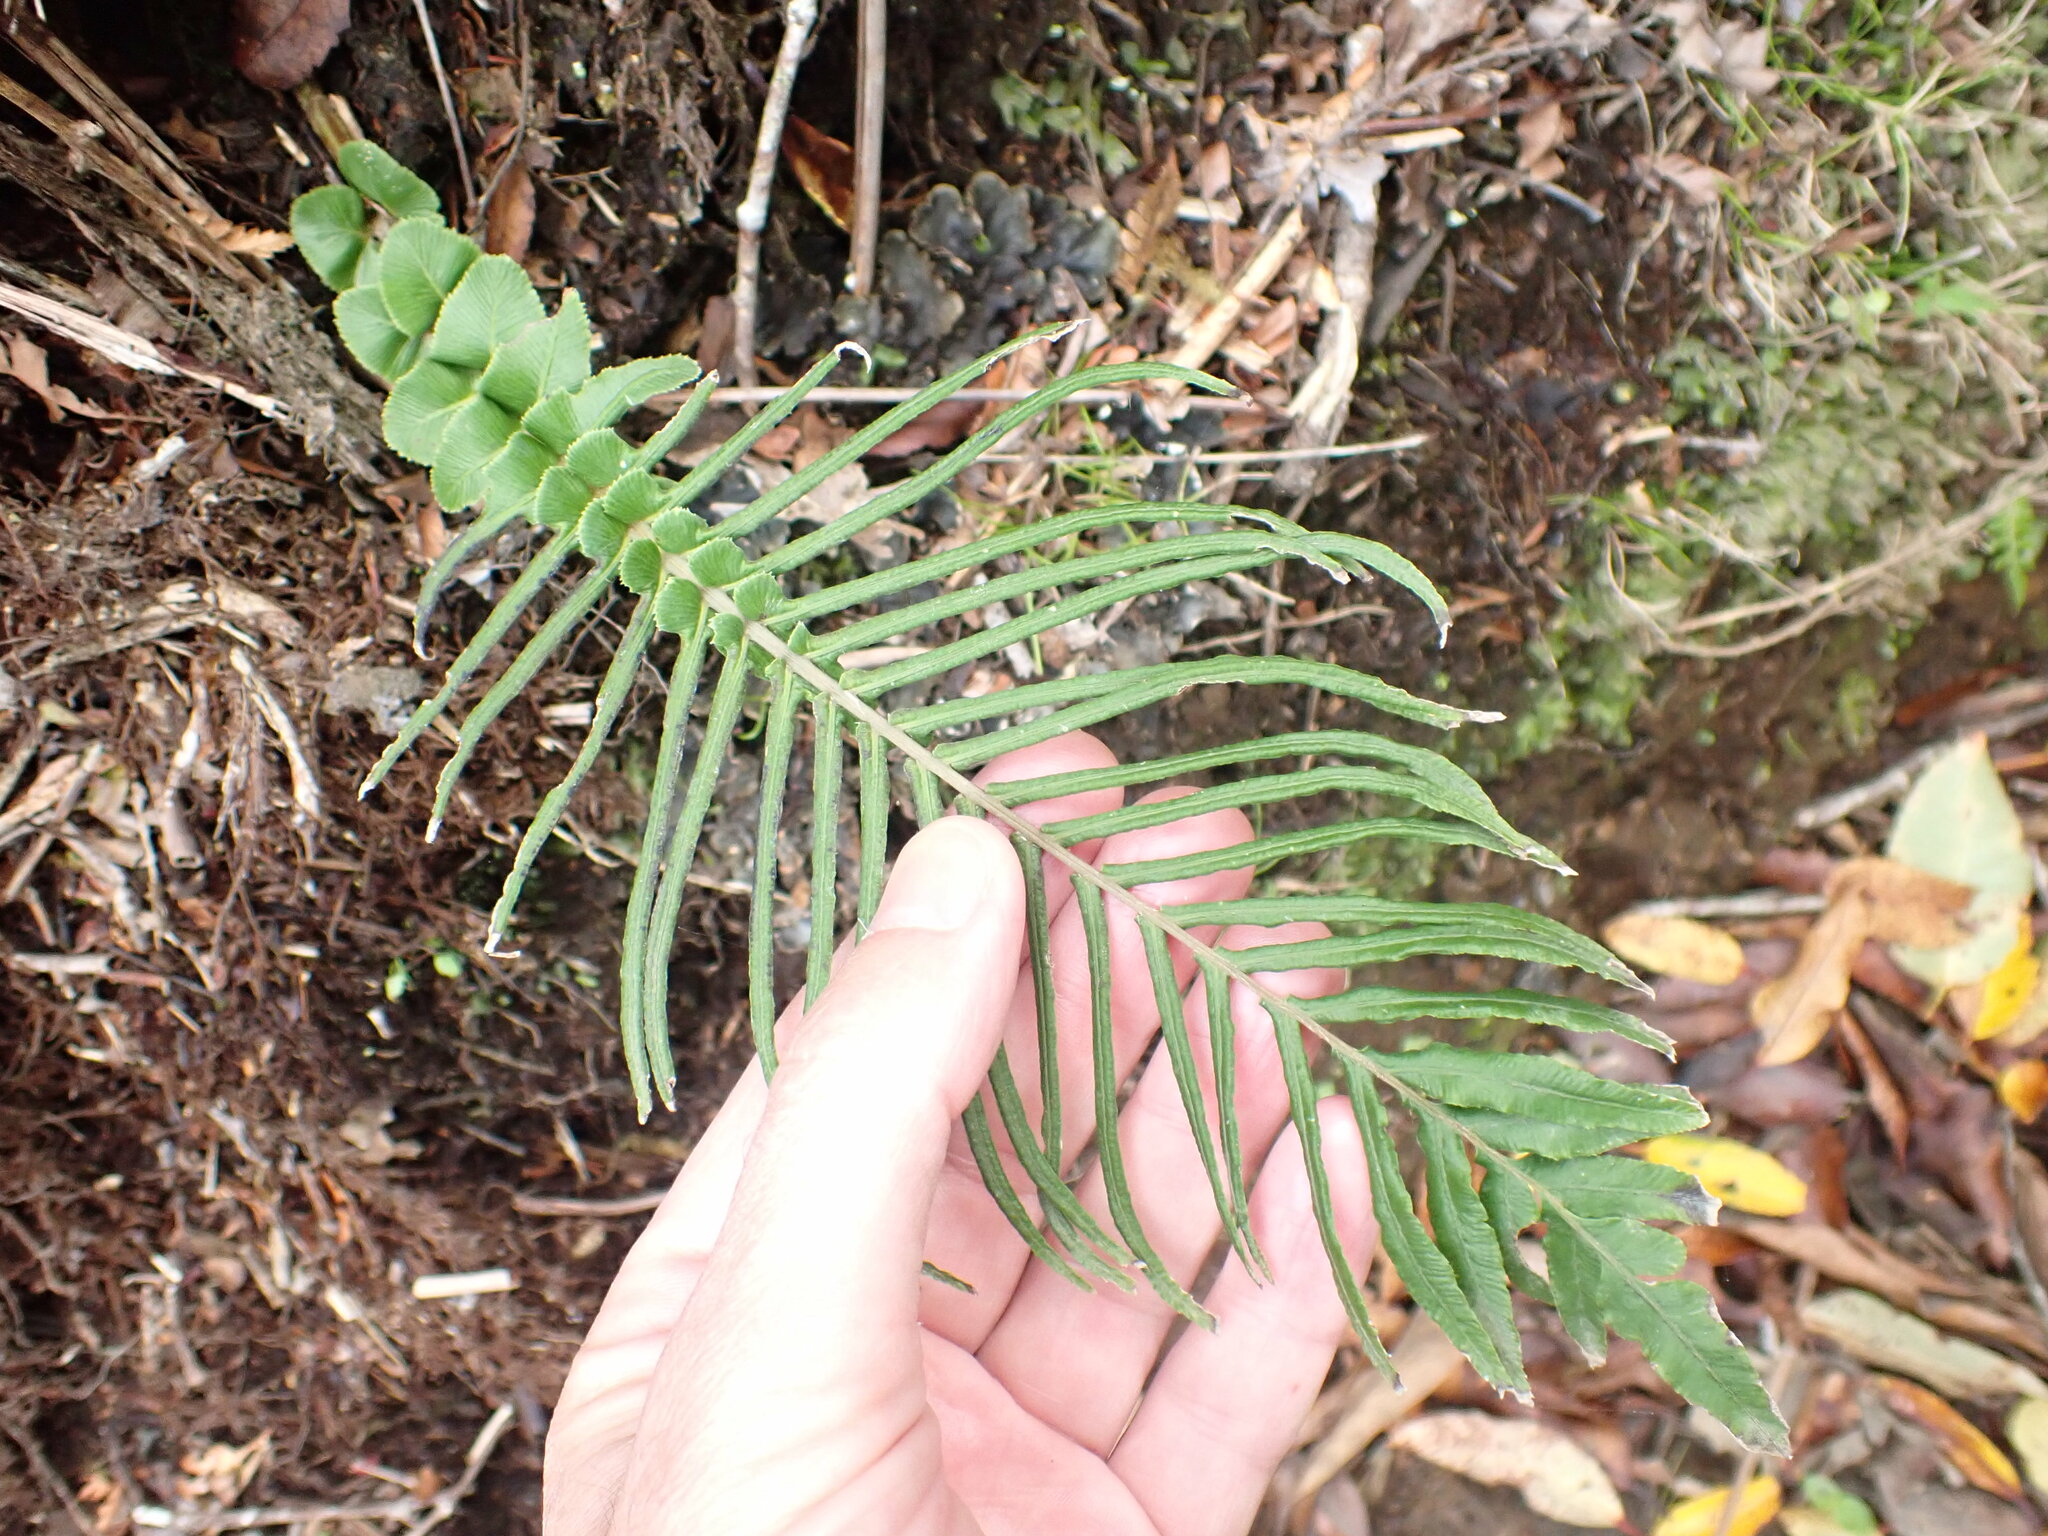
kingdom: Plantae
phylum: Tracheophyta
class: Polypodiopsida
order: Polypodiales
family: Blechnaceae
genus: Parablechnum
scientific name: Parablechnum novae-zelandiae
